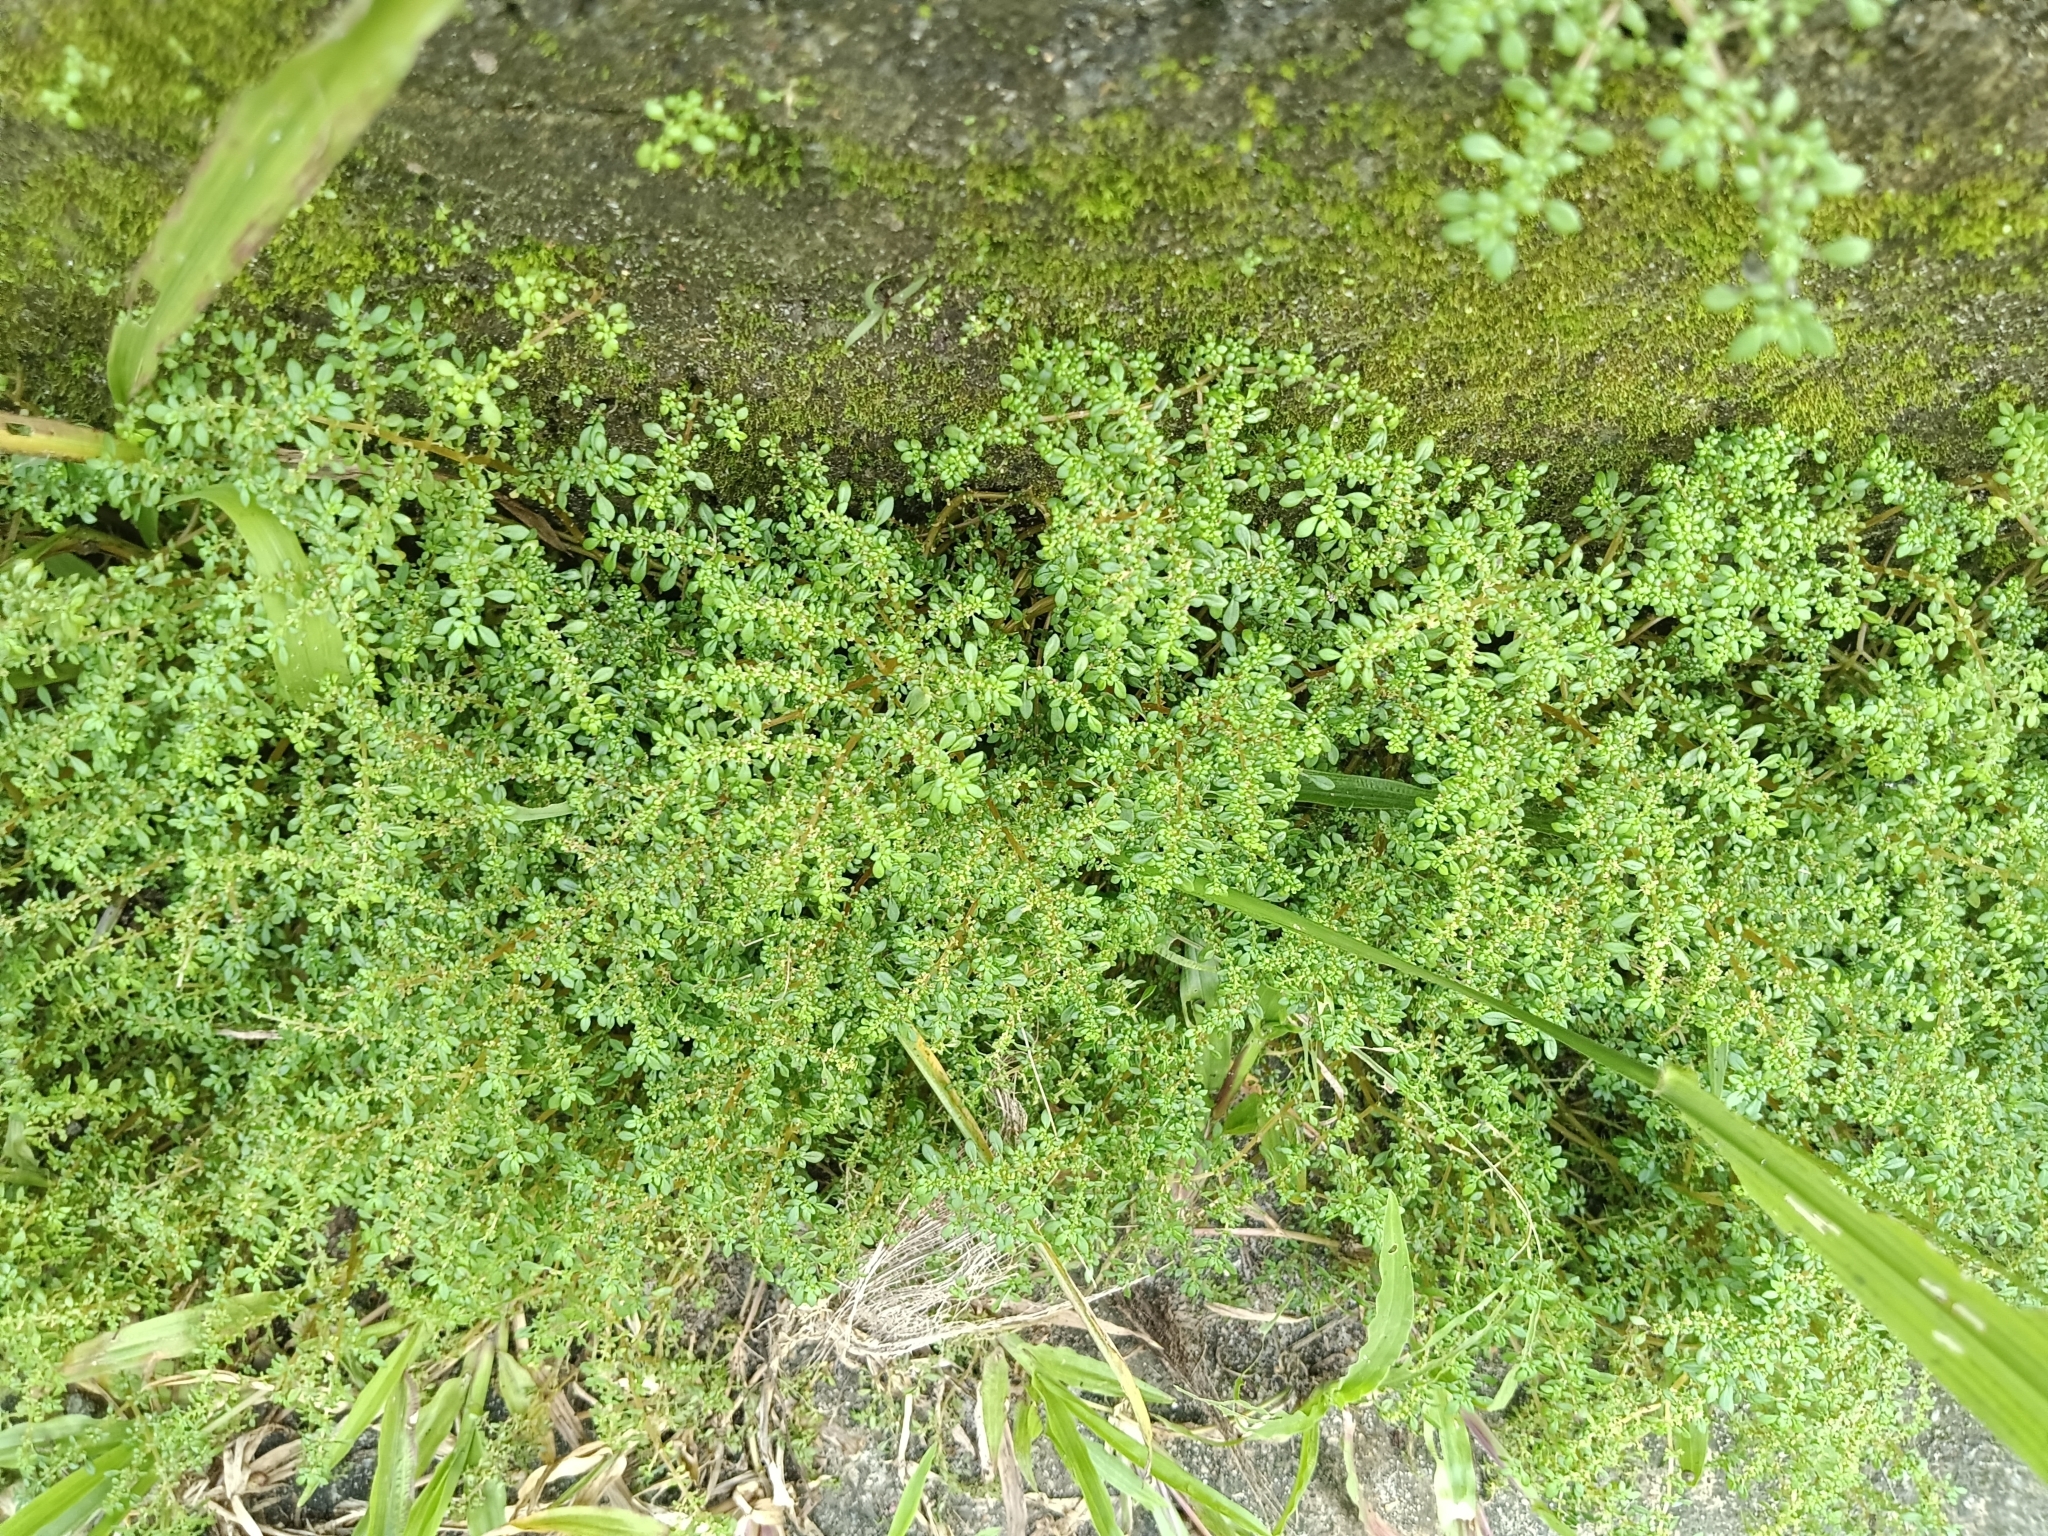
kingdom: Plantae
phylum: Tracheophyta
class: Magnoliopsida
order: Rosales
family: Urticaceae
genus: Pilea
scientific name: Pilea microphylla
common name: Artillery-plant
